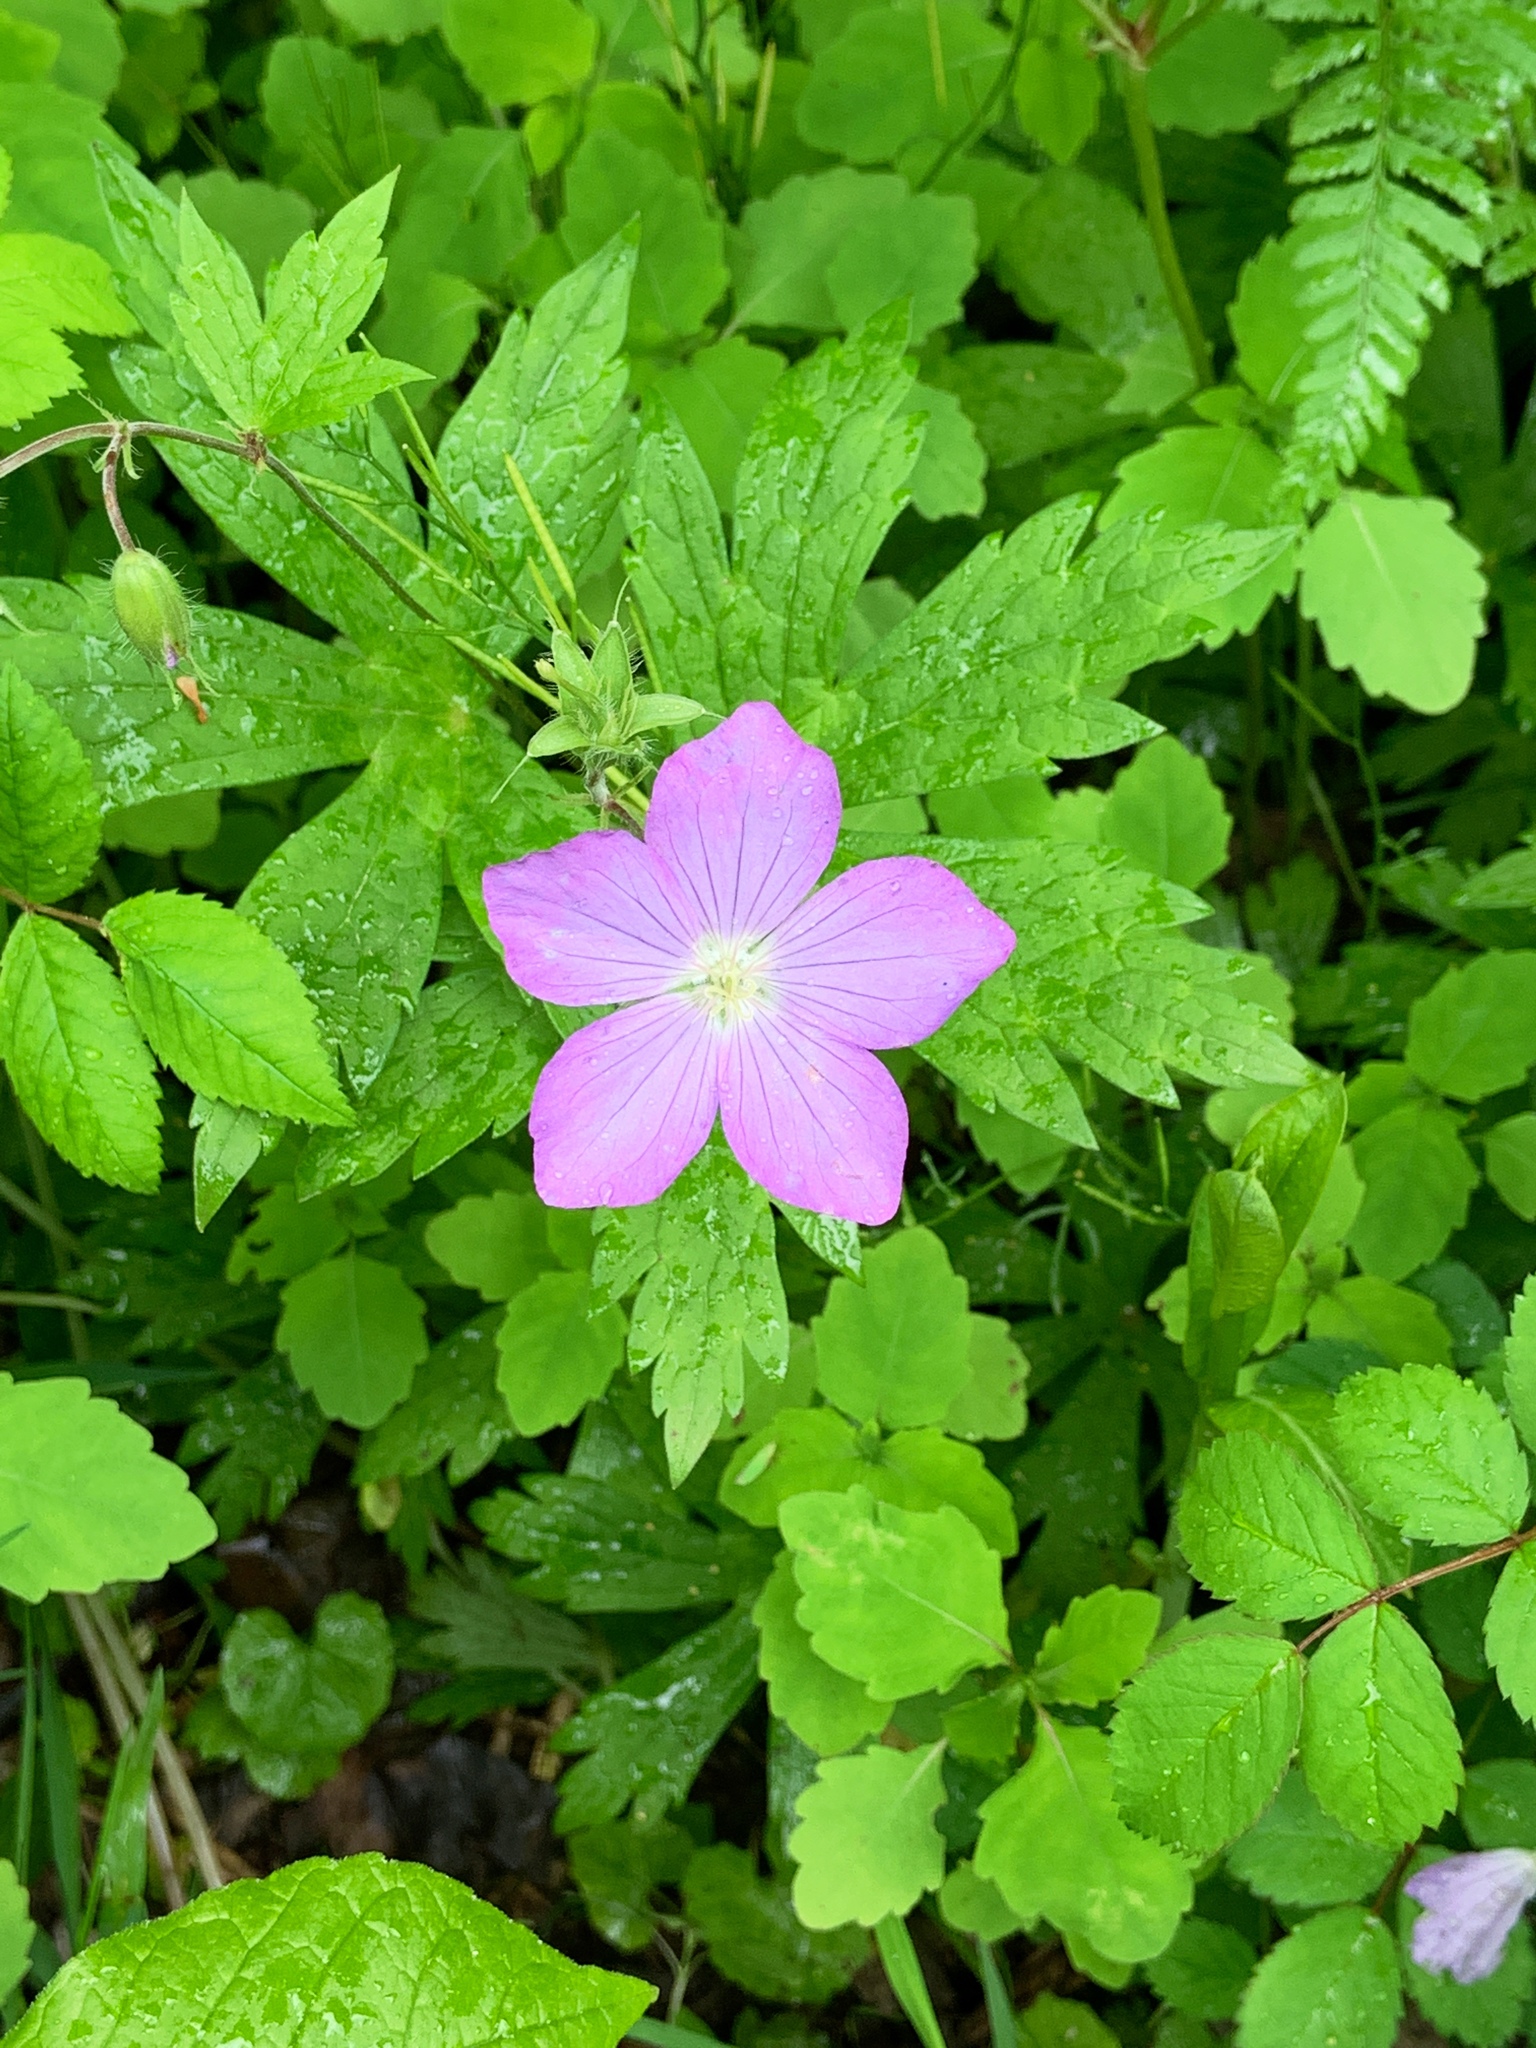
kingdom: Plantae
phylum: Tracheophyta
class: Magnoliopsida
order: Geraniales
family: Geraniaceae
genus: Geranium
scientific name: Geranium maculatum
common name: Spotted geranium
